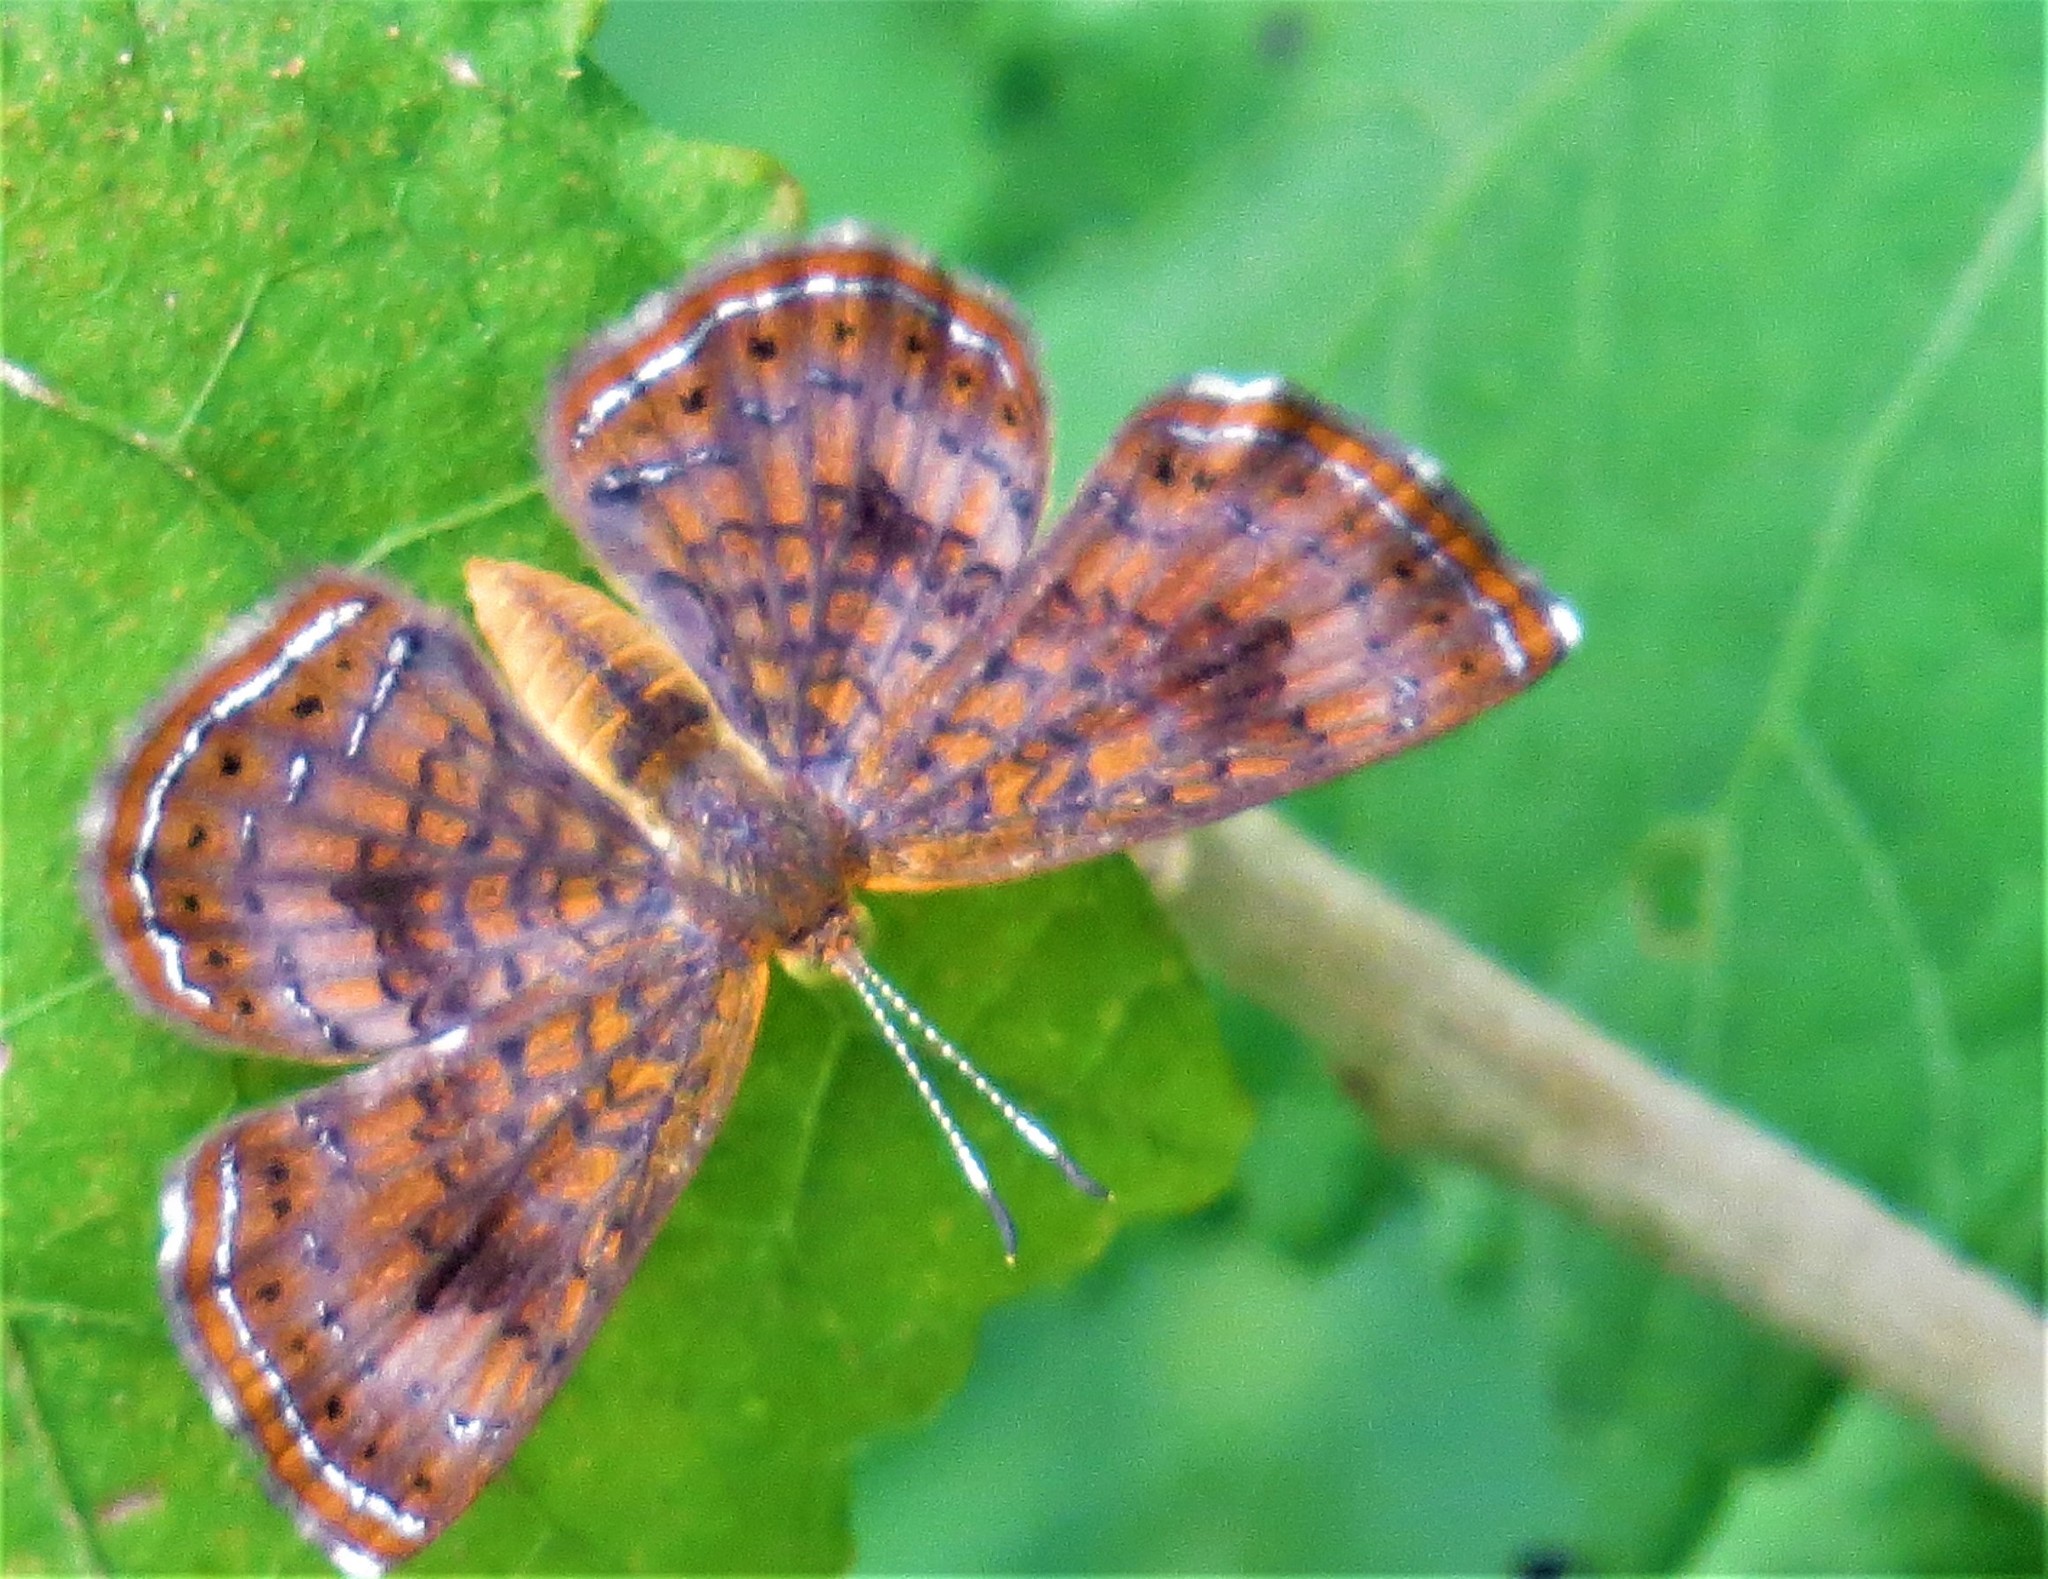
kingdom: Animalia
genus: Calephelis
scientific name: Calephelis nemesis
